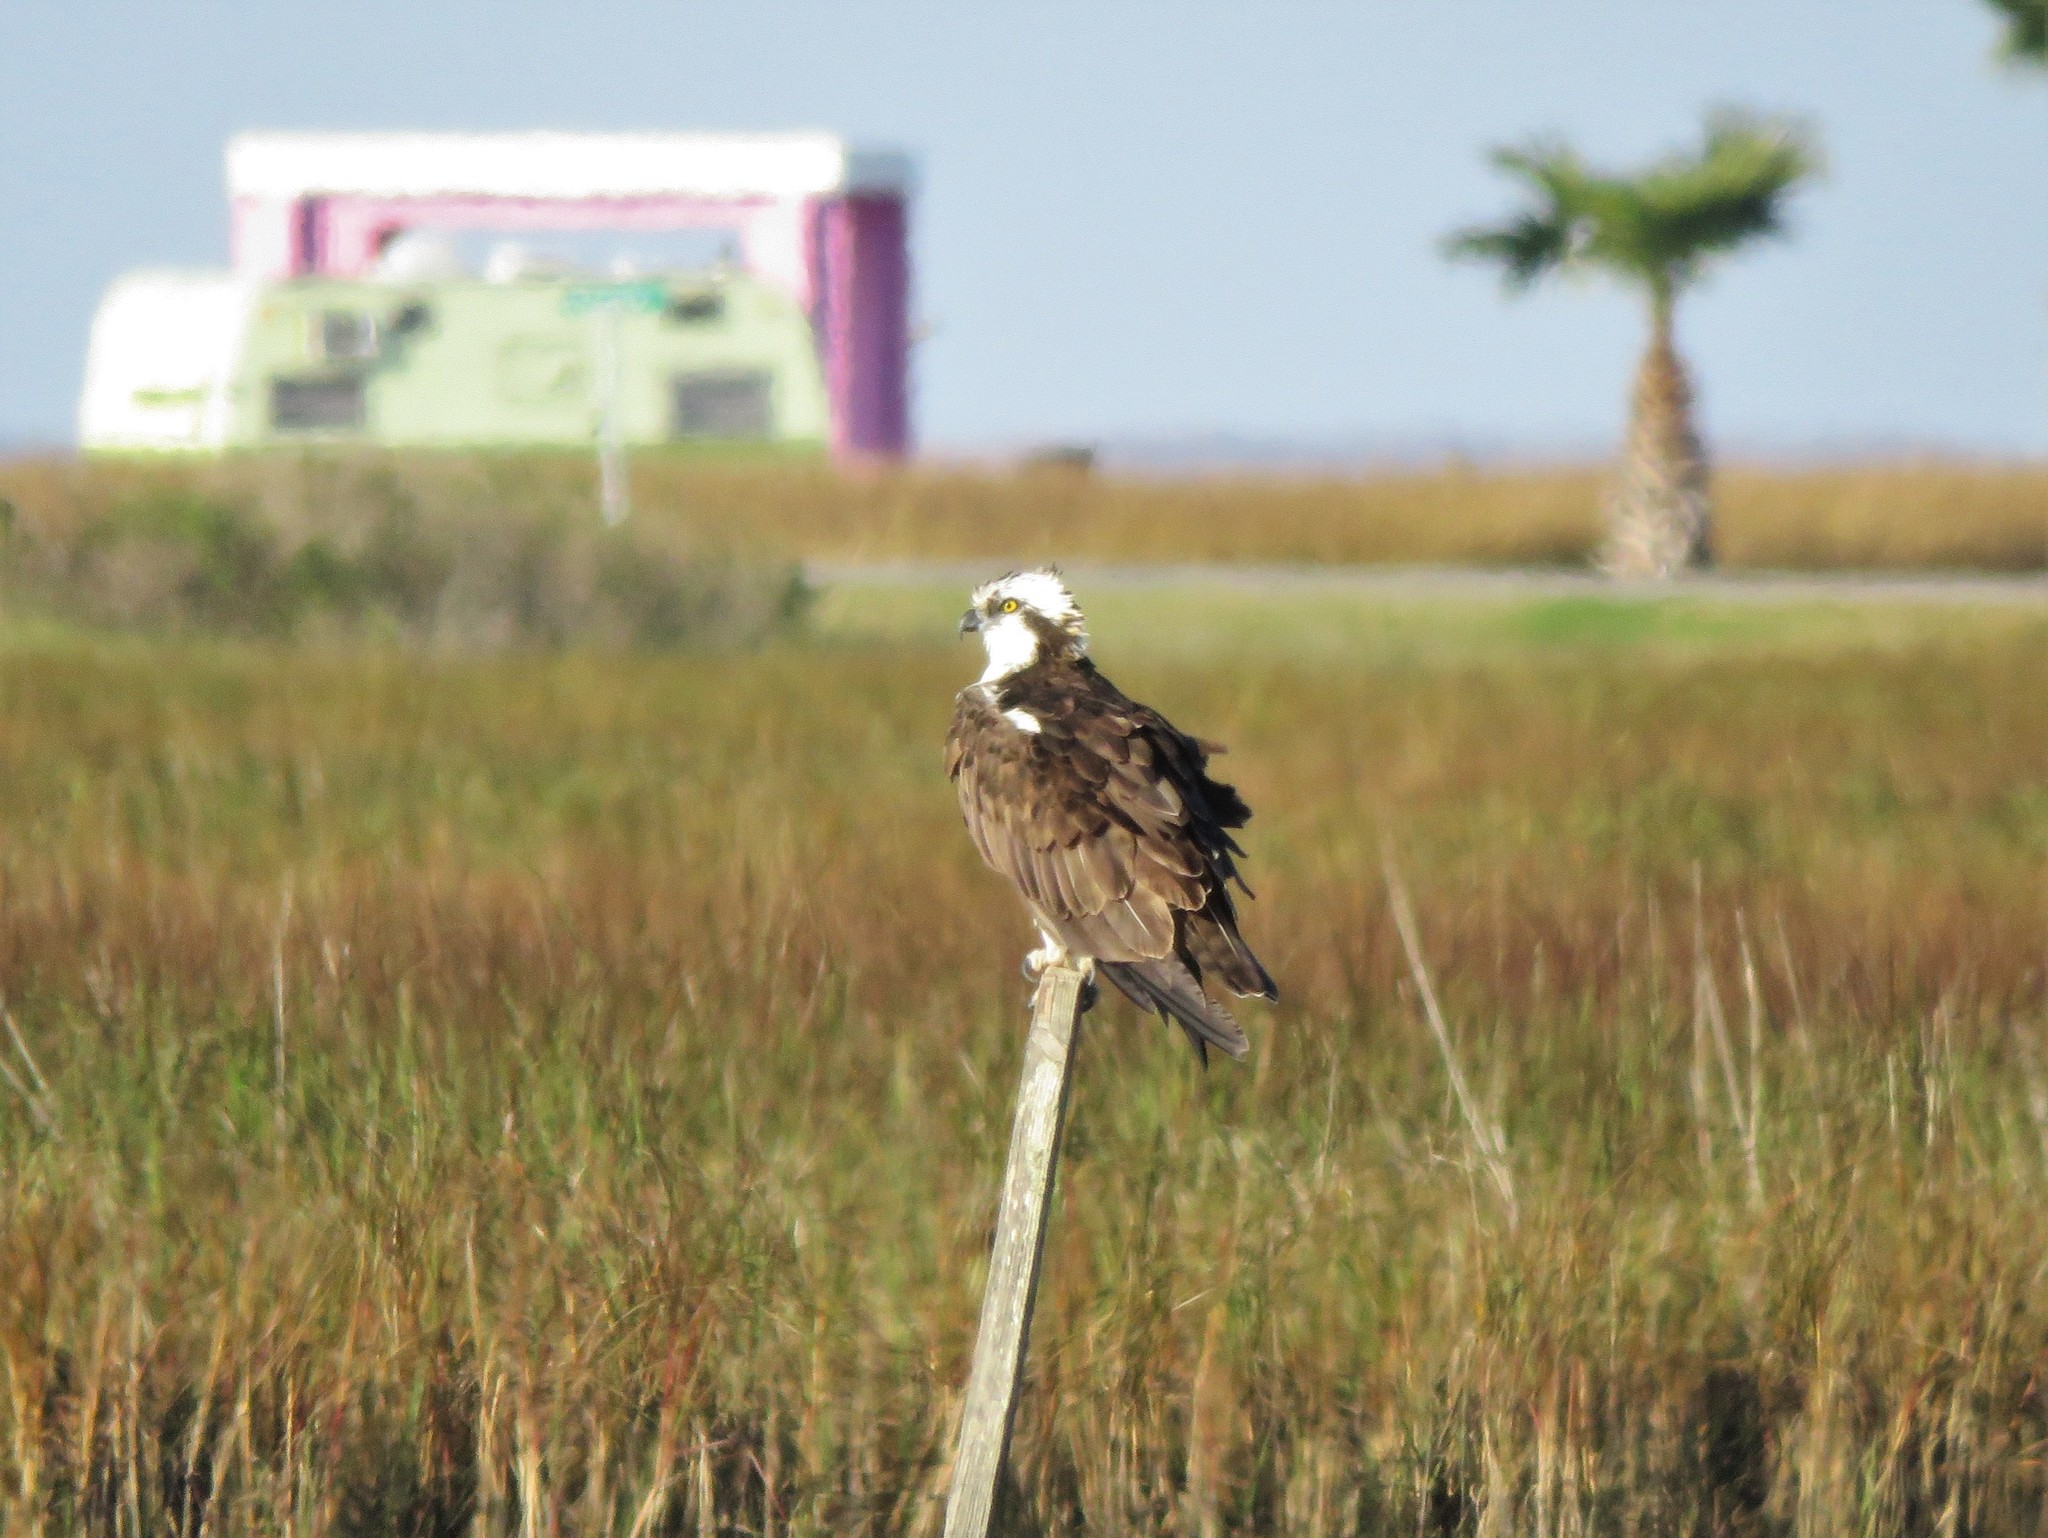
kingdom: Animalia
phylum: Chordata
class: Aves
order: Accipitriformes
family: Pandionidae
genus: Pandion
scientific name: Pandion haliaetus
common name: Osprey
